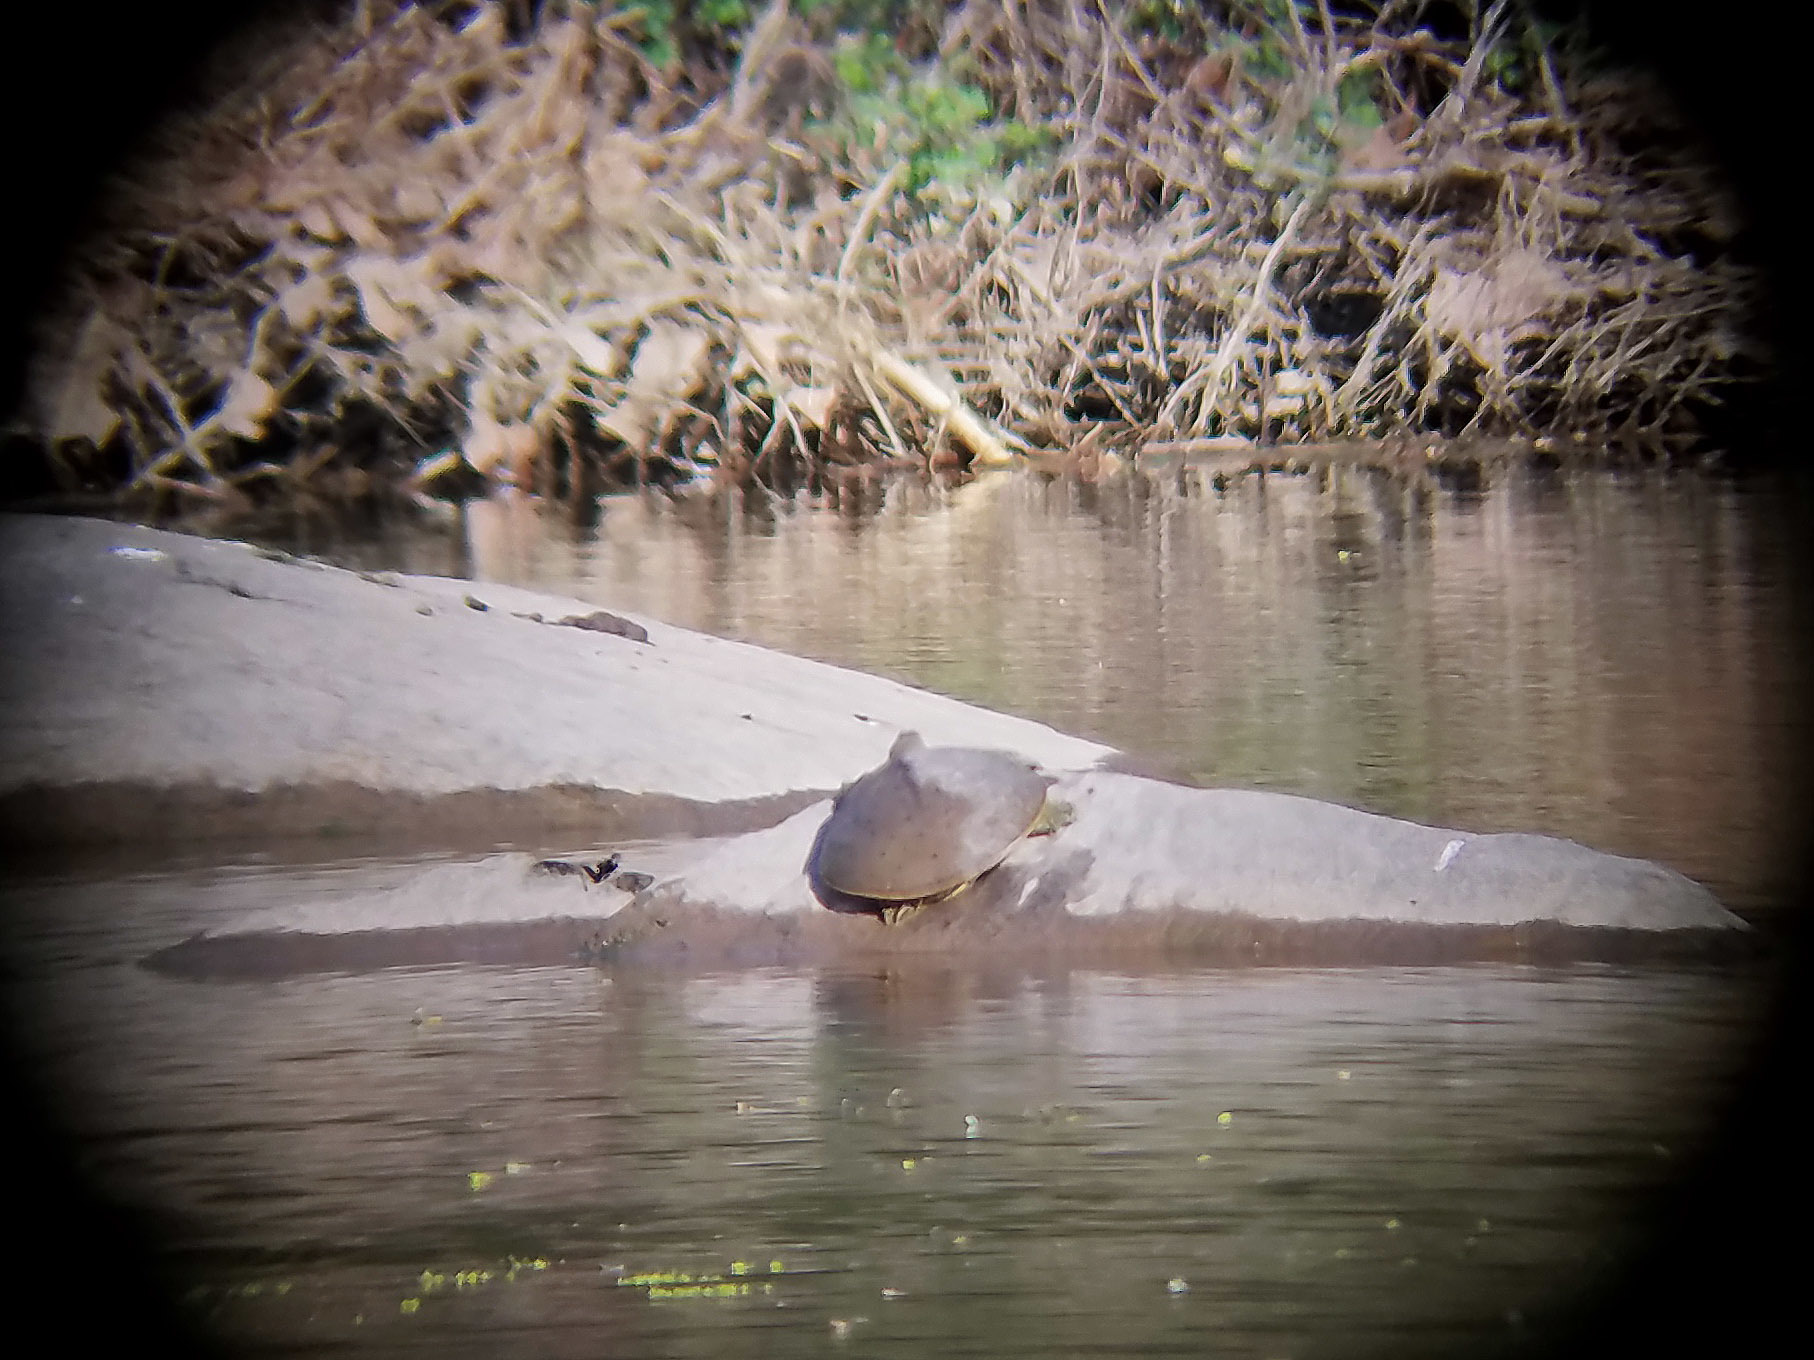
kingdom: Animalia
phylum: Chordata
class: Testudines
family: Trionychidae
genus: Apalone
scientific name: Apalone spinifera
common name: Spiny softshell turtle
